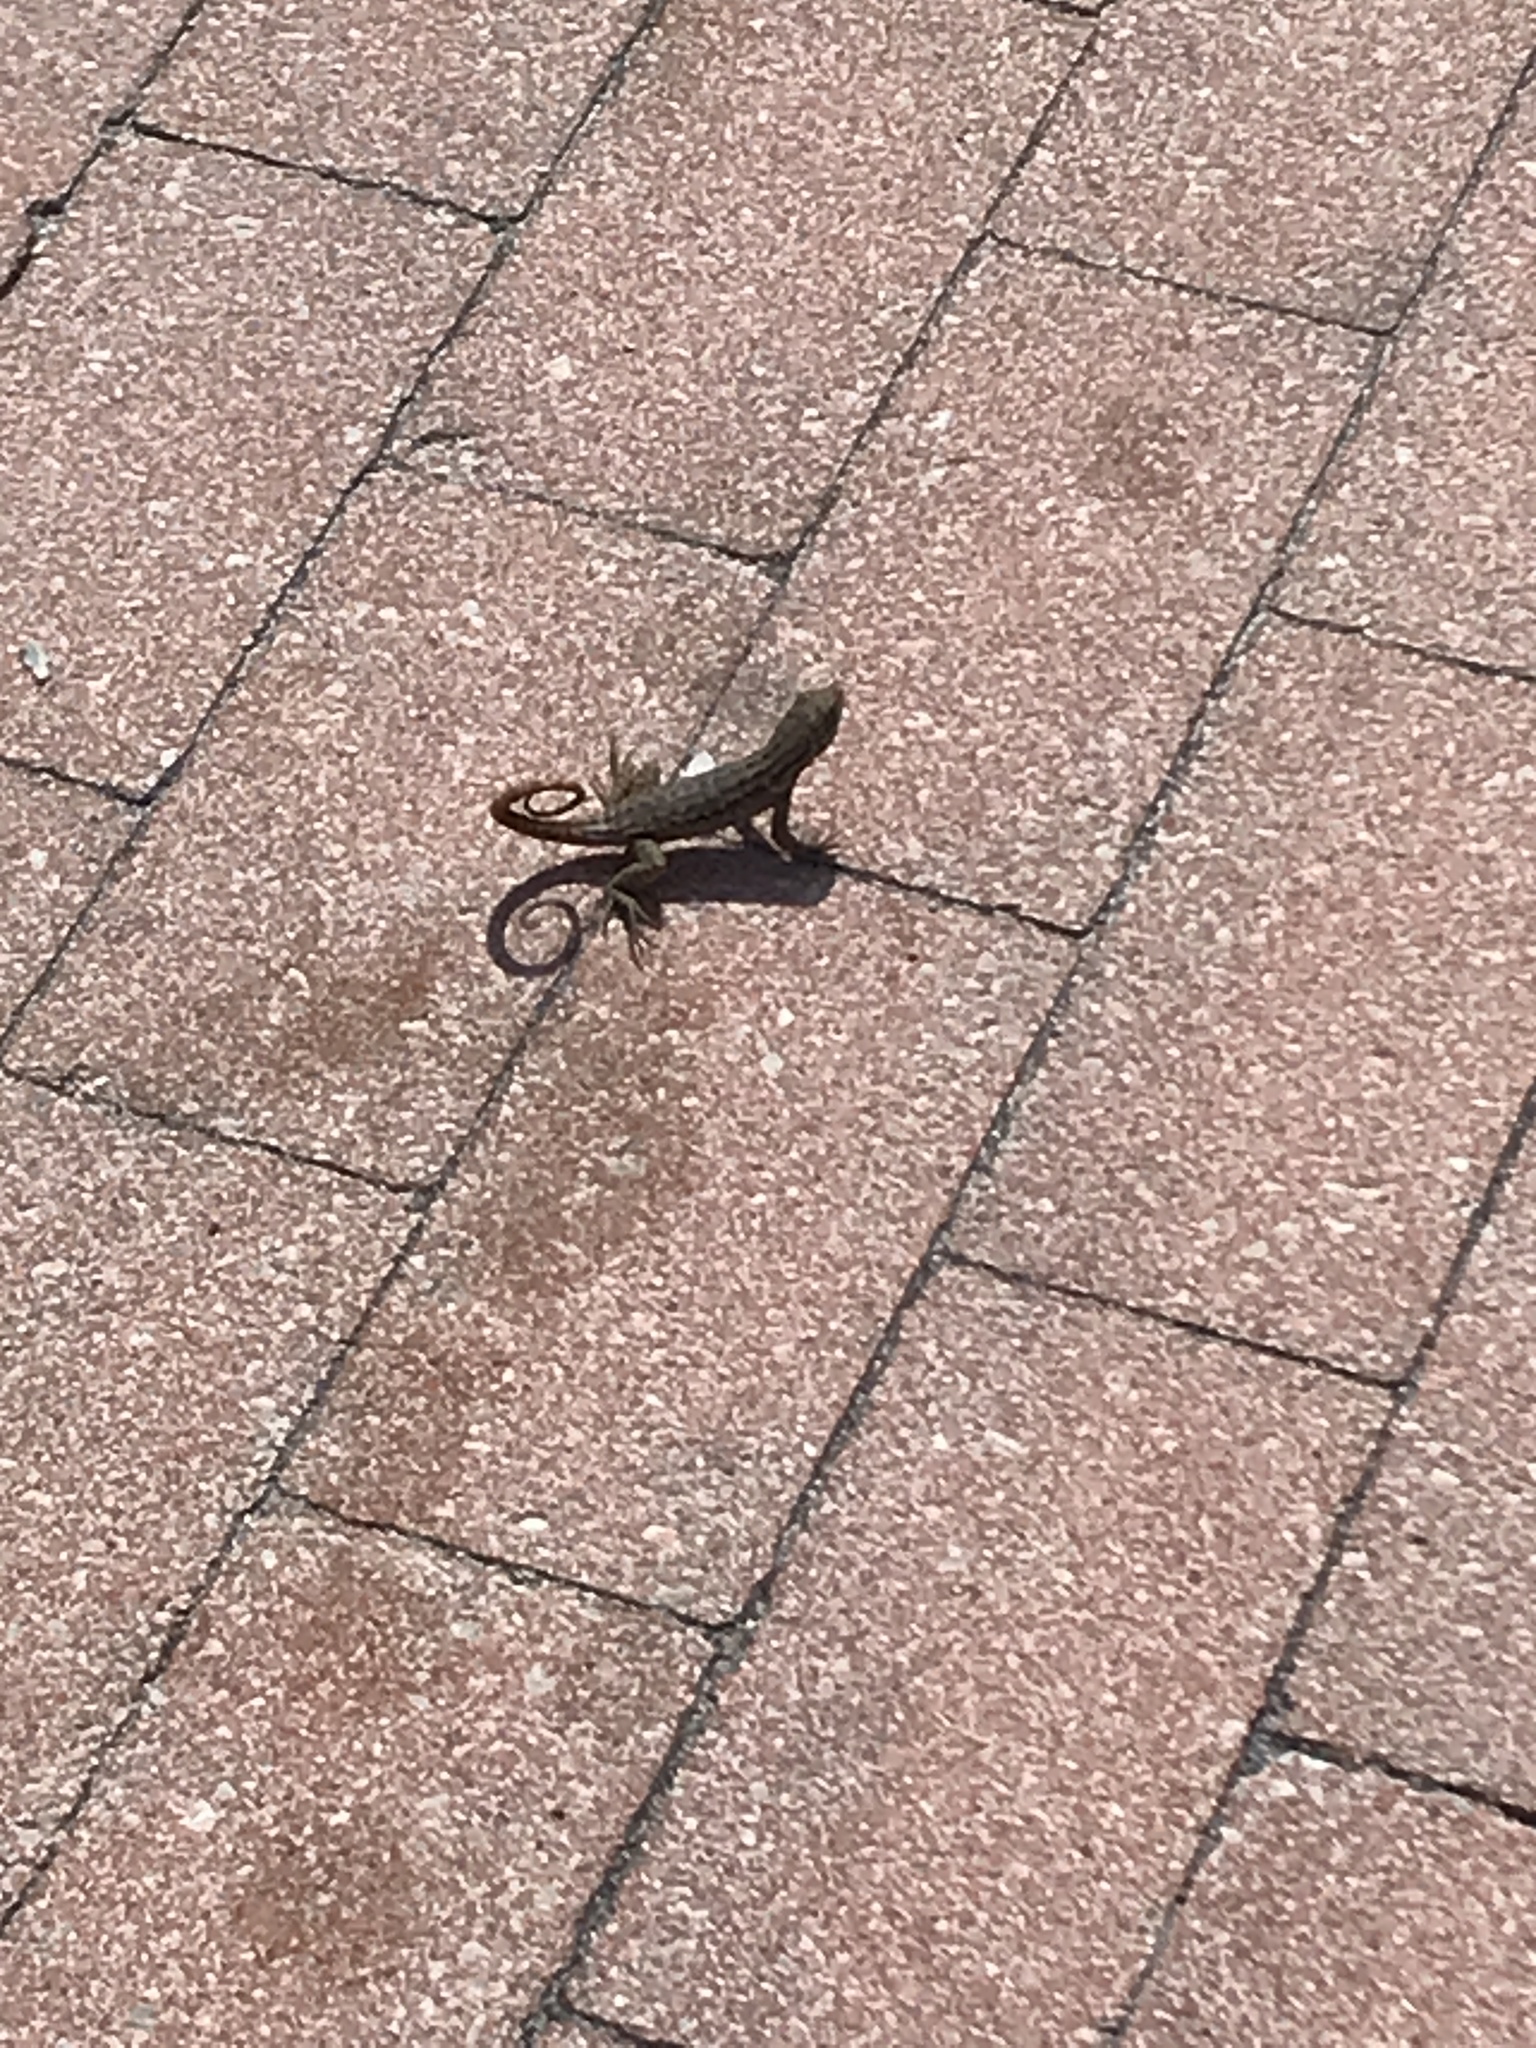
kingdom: Animalia
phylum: Chordata
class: Squamata
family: Leiocephalidae
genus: Leiocephalus
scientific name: Leiocephalus carinatus
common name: Northern curly-tailed lizard
